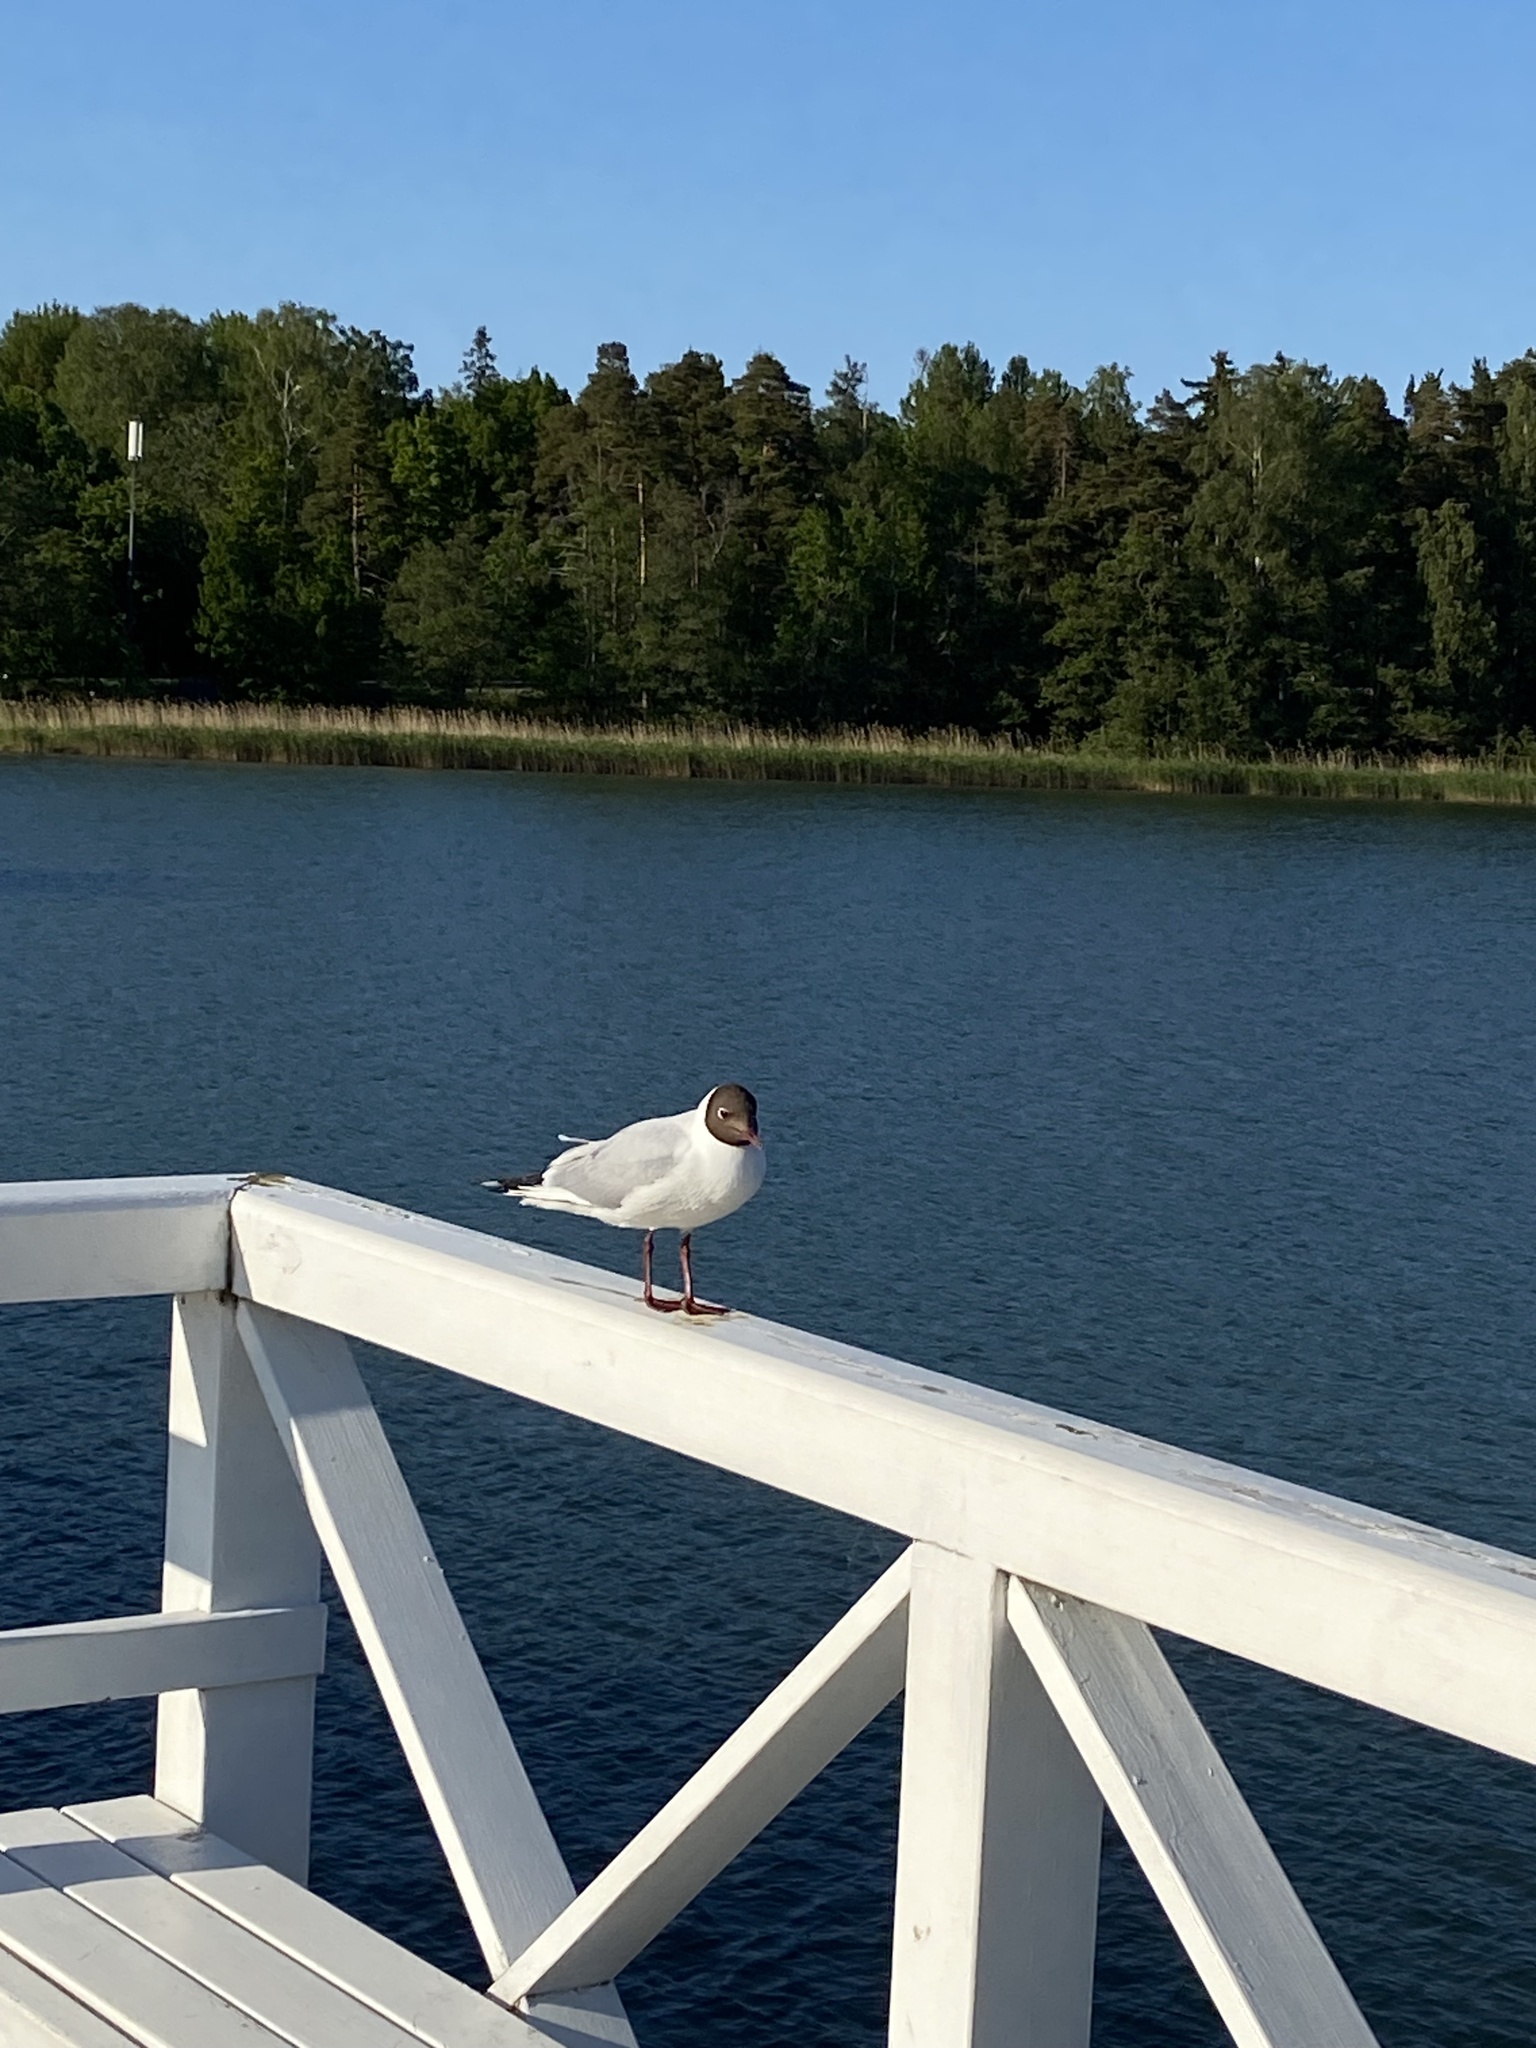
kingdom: Animalia
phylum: Chordata
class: Aves
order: Charadriiformes
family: Laridae
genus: Chroicocephalus
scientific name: Chroicocephalus ridibundus
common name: Black-headed gull
